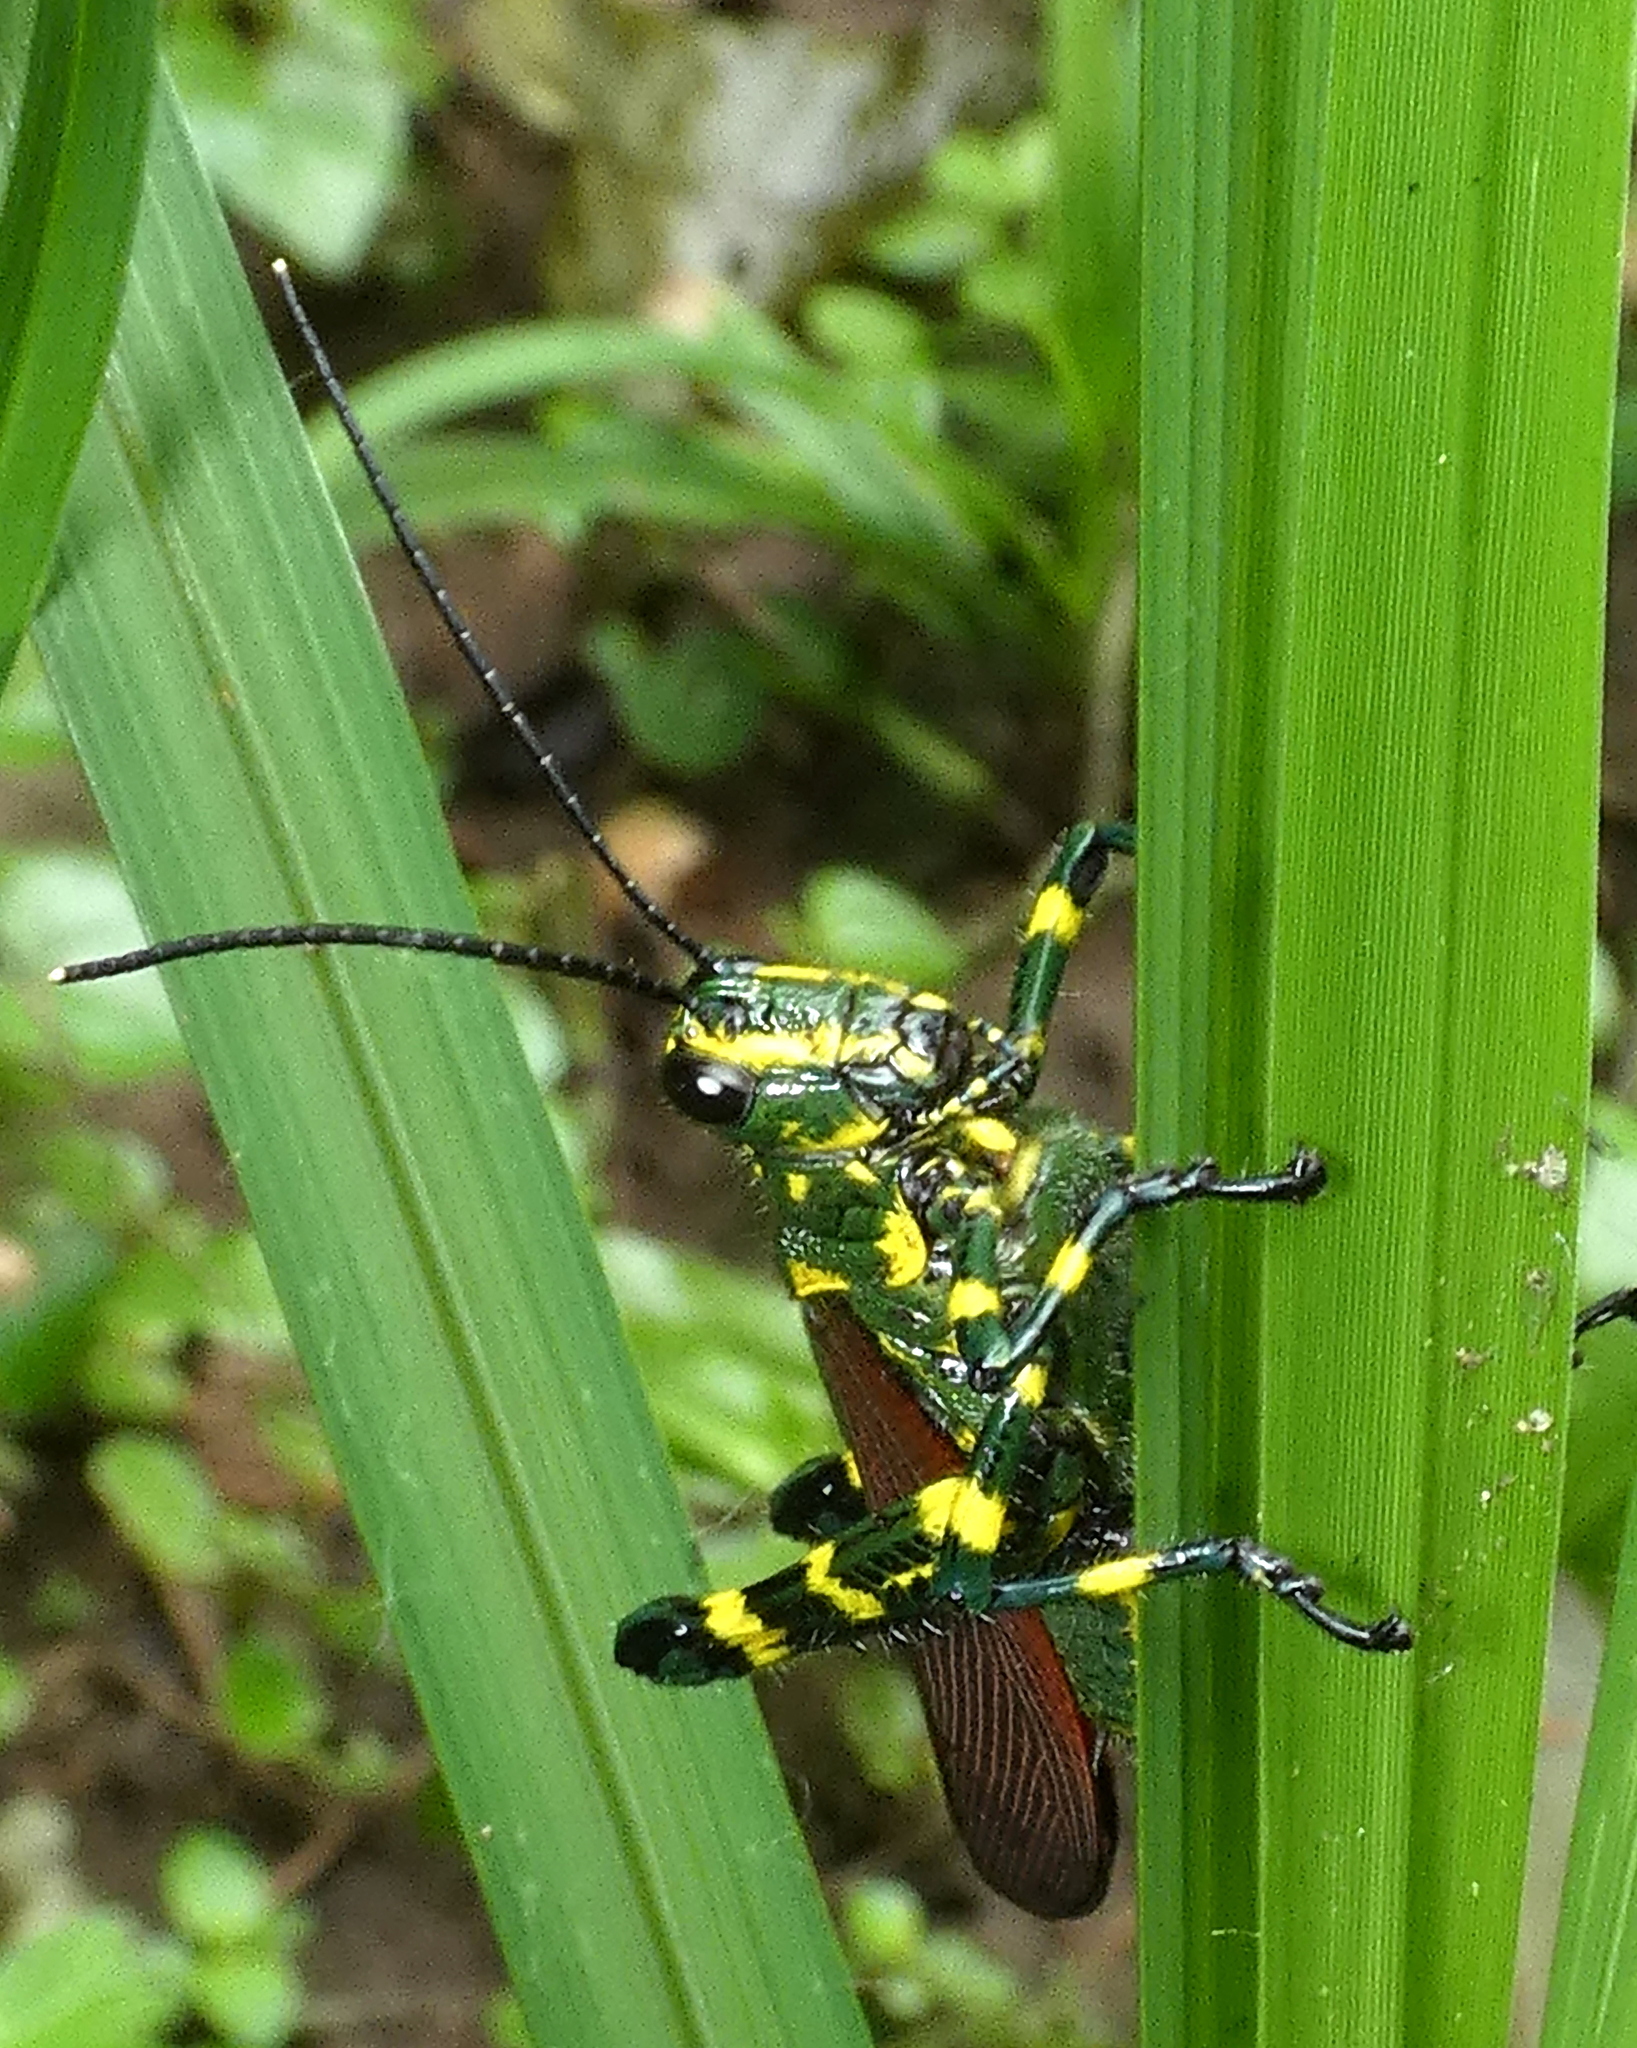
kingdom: Animalia
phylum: Arthropoda
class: Insecta
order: Orthoptera
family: Romaleidae
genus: Chromacris
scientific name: Chromacris speciosa
